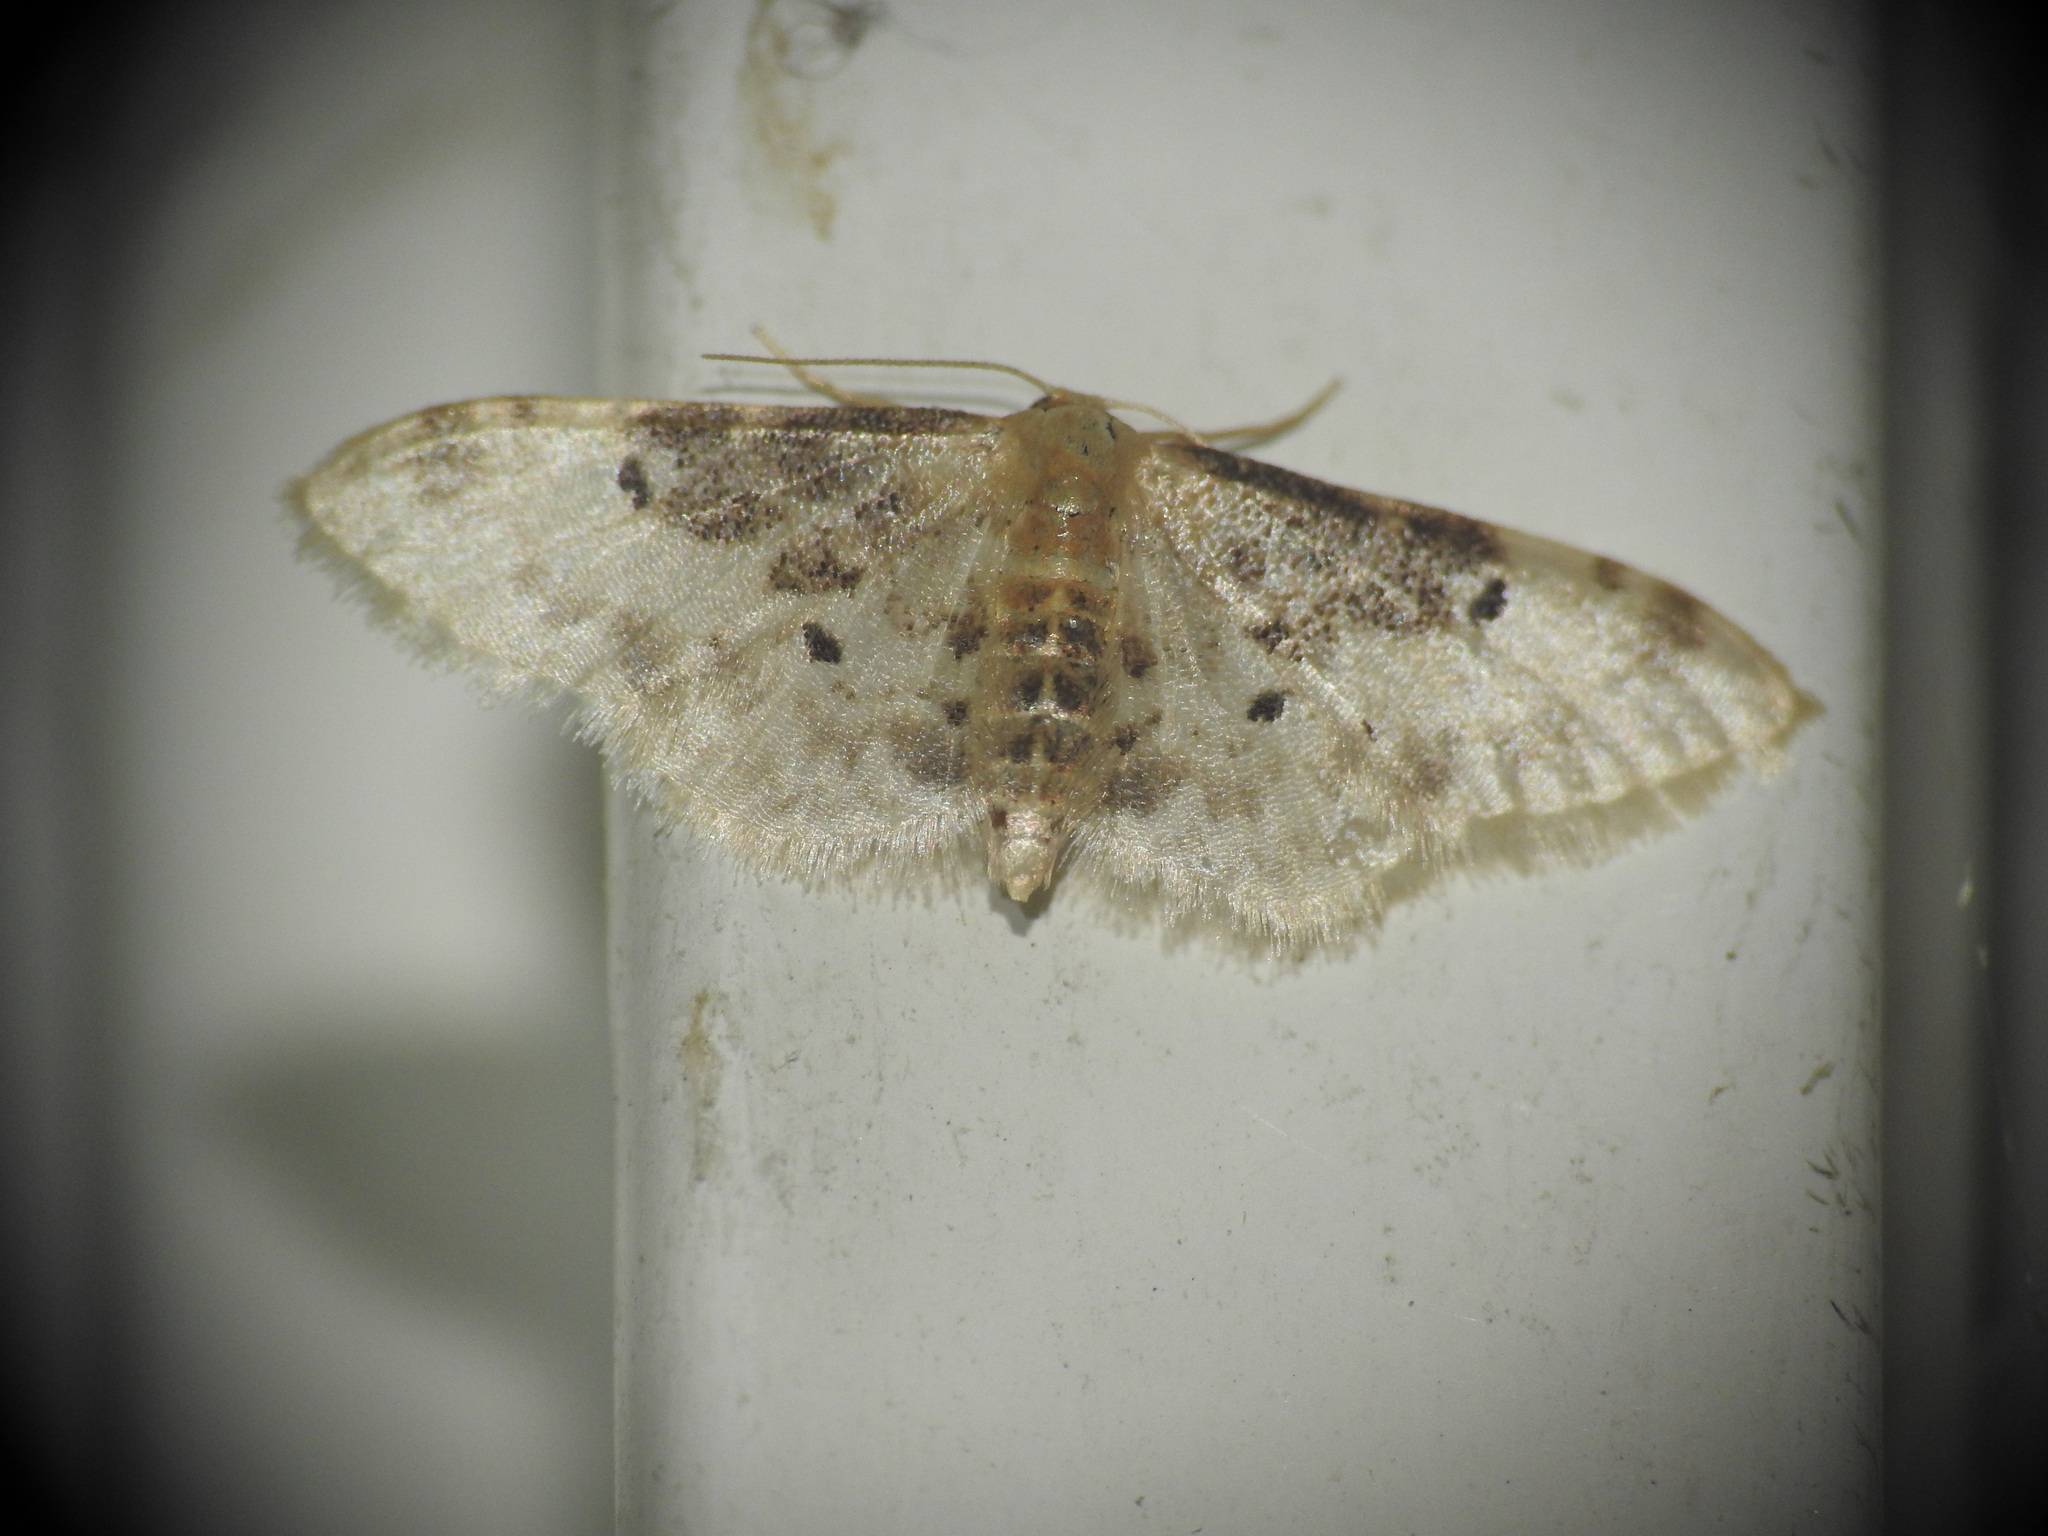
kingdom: Animalia
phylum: Arthropoda
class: Insecta
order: Lepidoptera
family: Geometridae
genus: Idaea
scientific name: Idaea filicata
